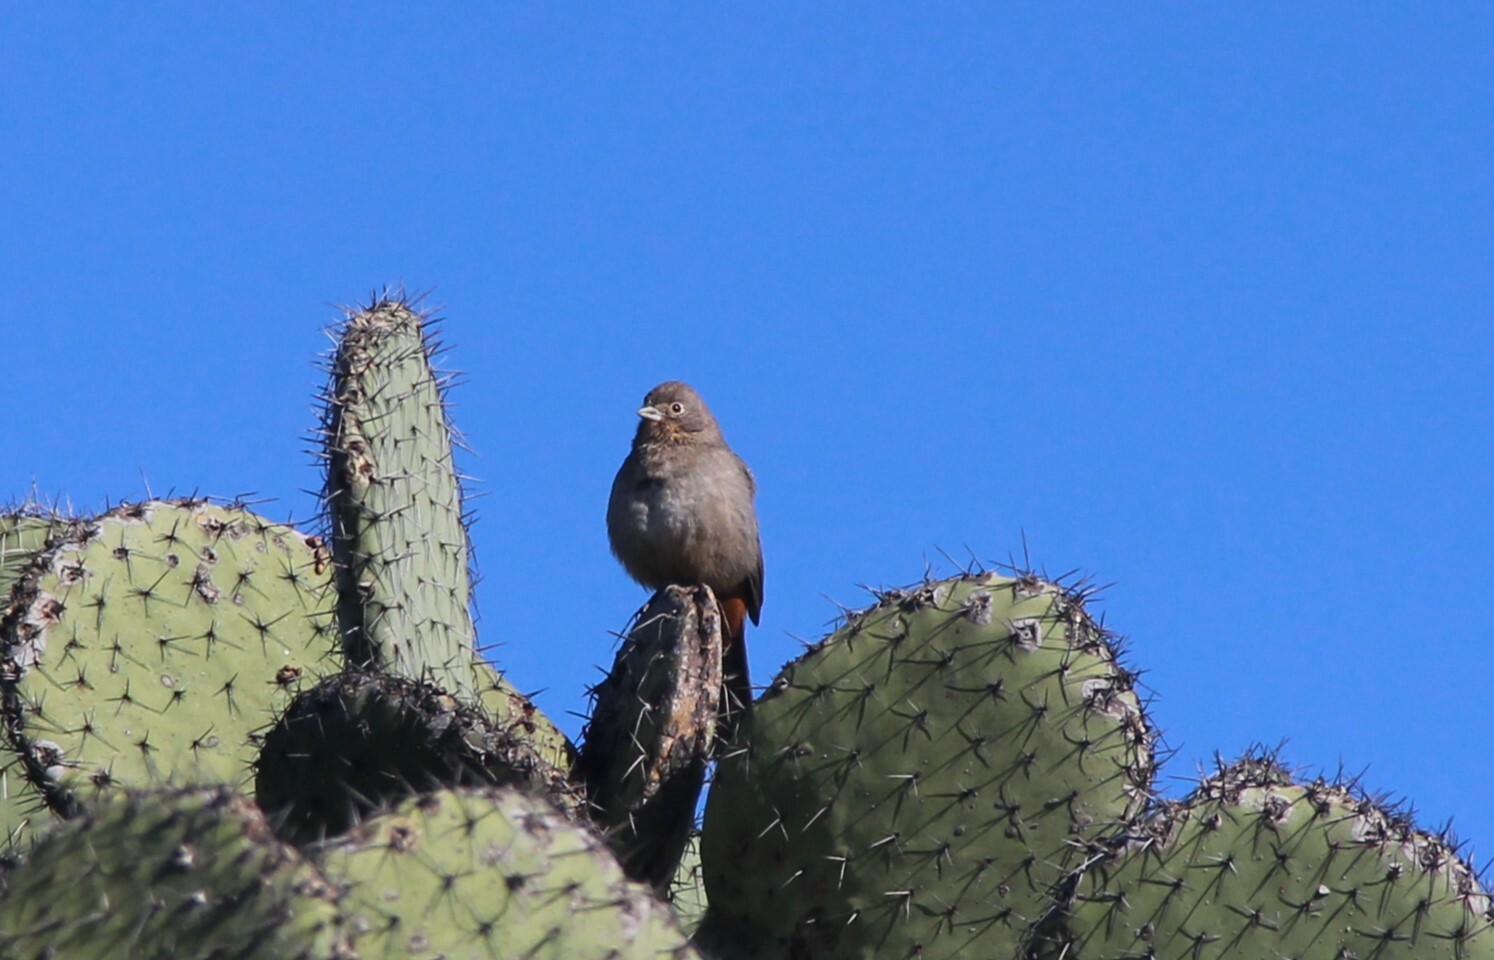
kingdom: Animalia
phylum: Chordata
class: Aves
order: Passeriformes
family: Passerellidae
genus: Melozone
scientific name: Melozone fusca
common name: Canyon towhee
